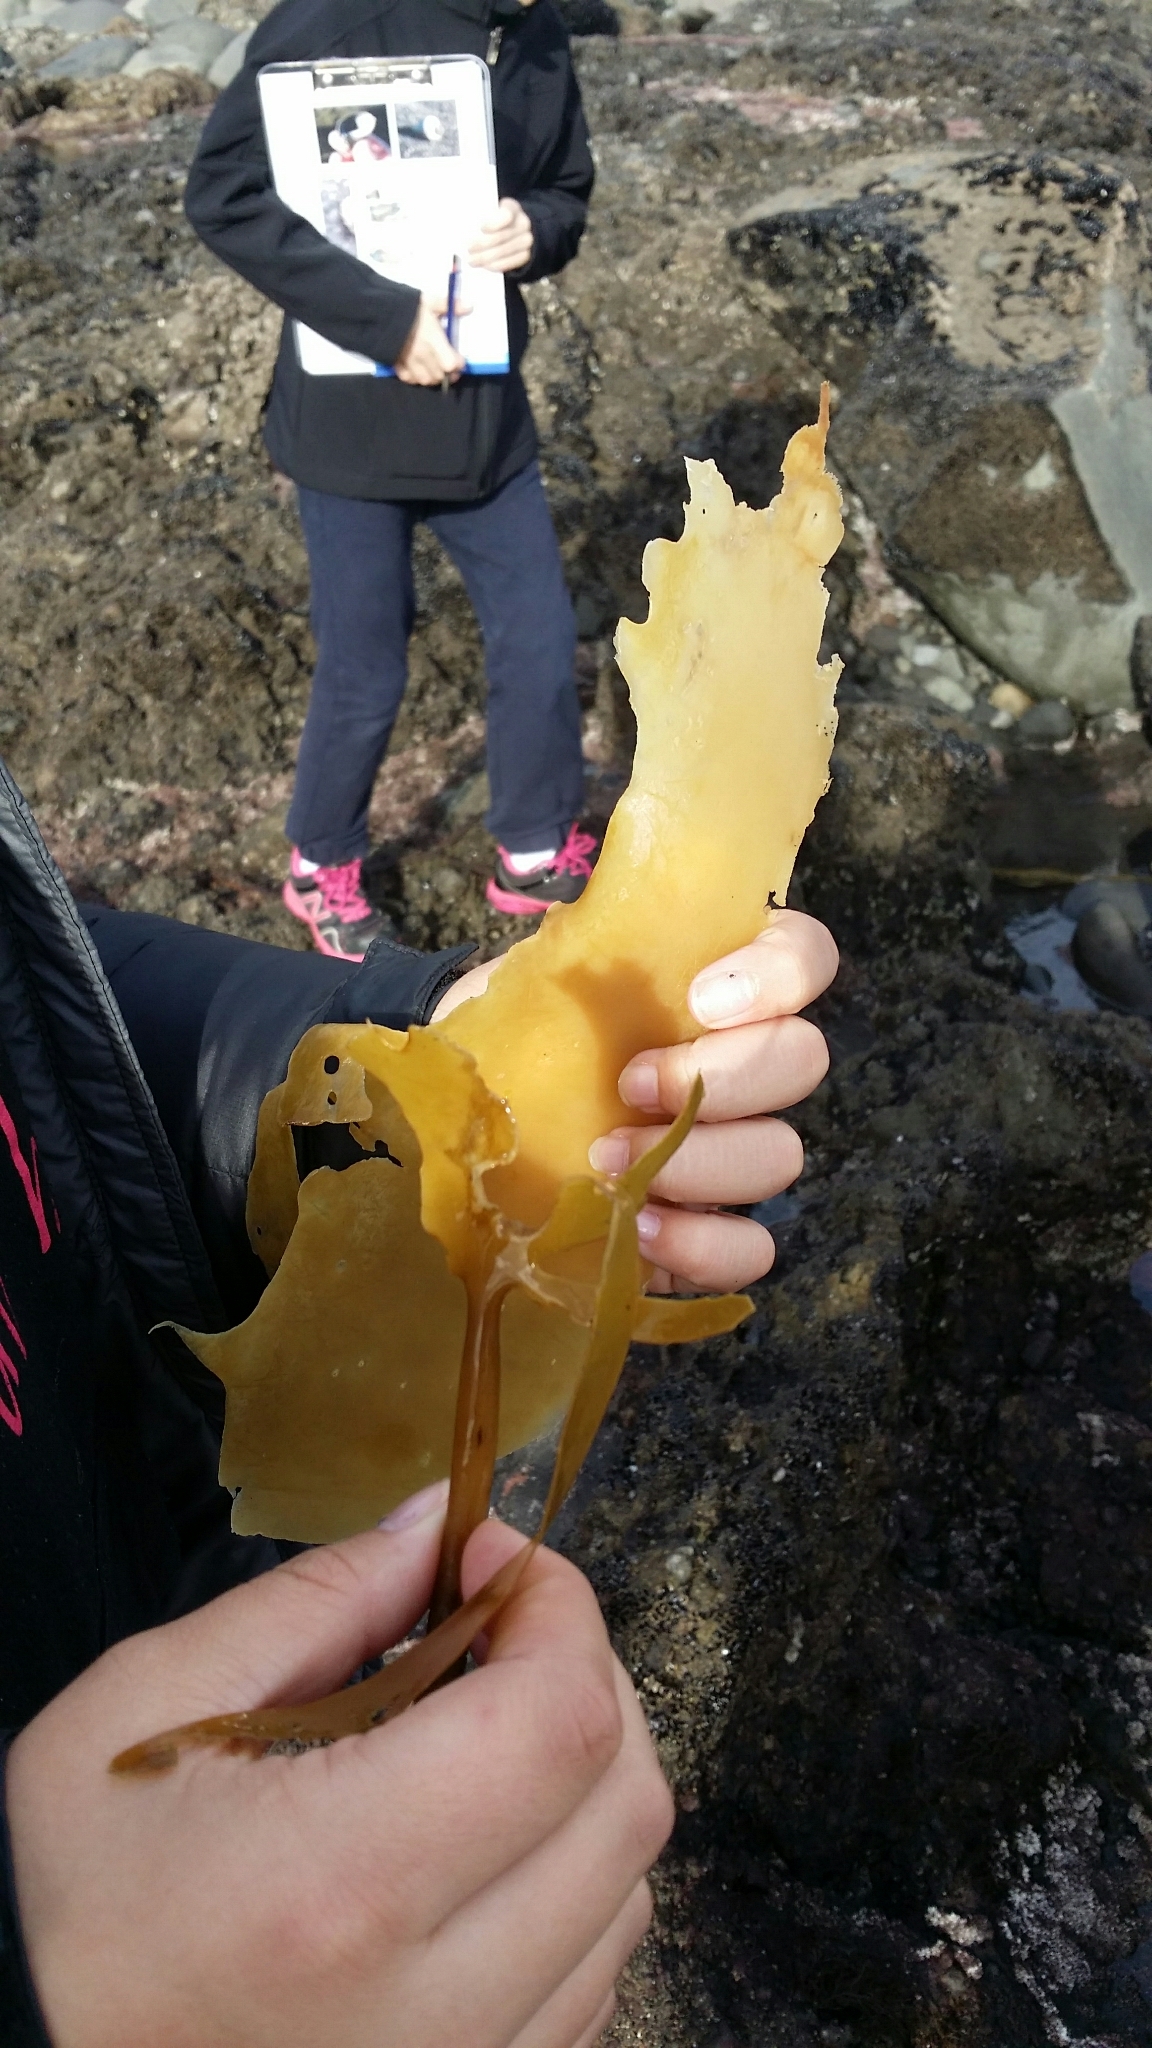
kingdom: Chromista
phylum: Ochrophyta
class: Phaeophyceae
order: Laminariales
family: Lessoniaceae
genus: Ecklonia
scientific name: Ecklonia radiata
